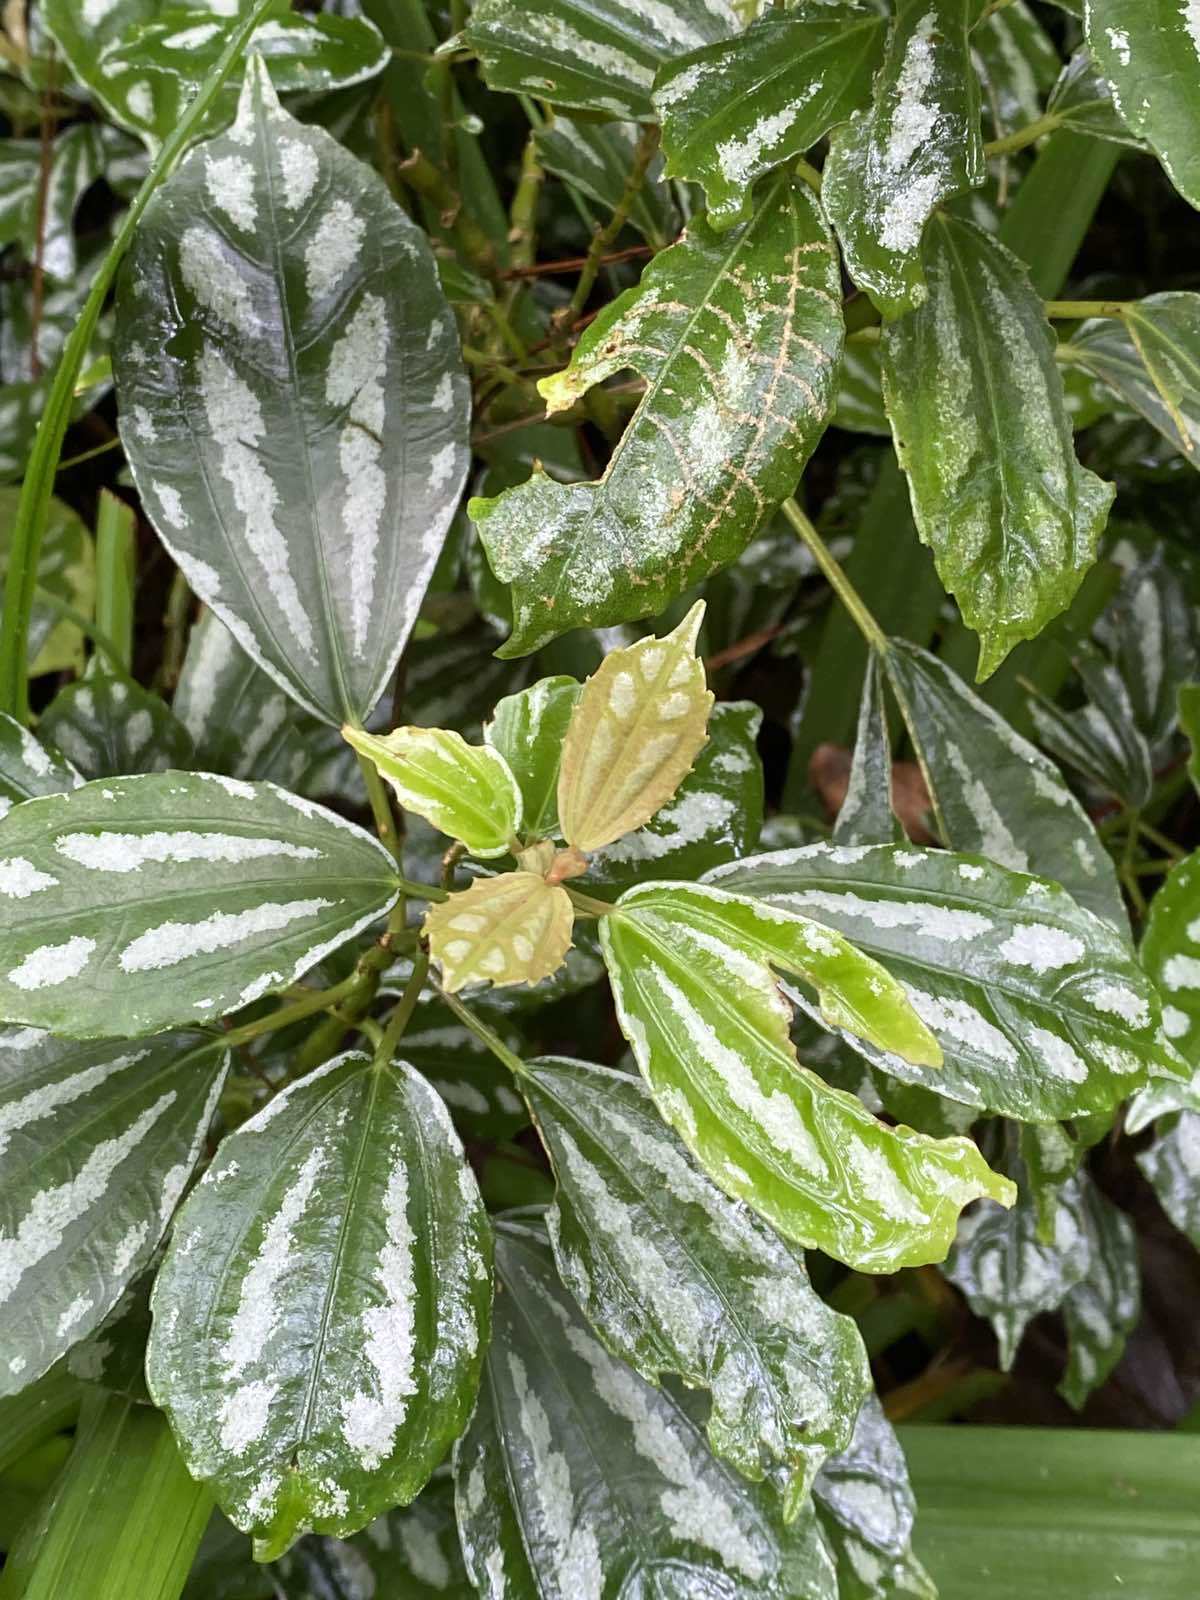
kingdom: Plantae
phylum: Tracheophyta
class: Magnoliopsida
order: Rosales
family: Urticaceae
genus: Pilea
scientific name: Pilea cadierei
